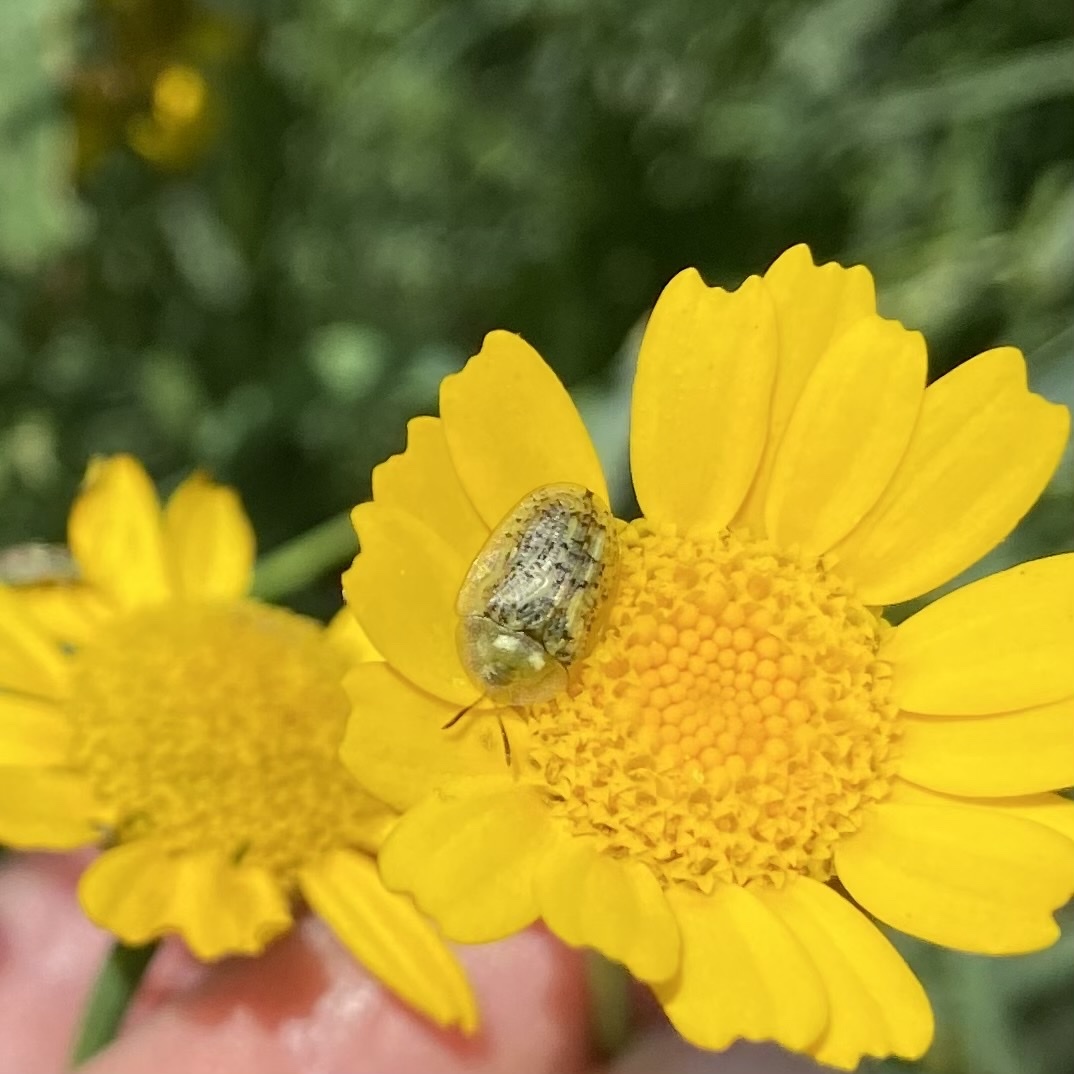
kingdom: Animalia
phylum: Arthropoda
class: Insecta
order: Coleoptera
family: Chrysomelidae
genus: Cassida
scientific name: Cassida nebulosa
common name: Beet tortoise beetle
